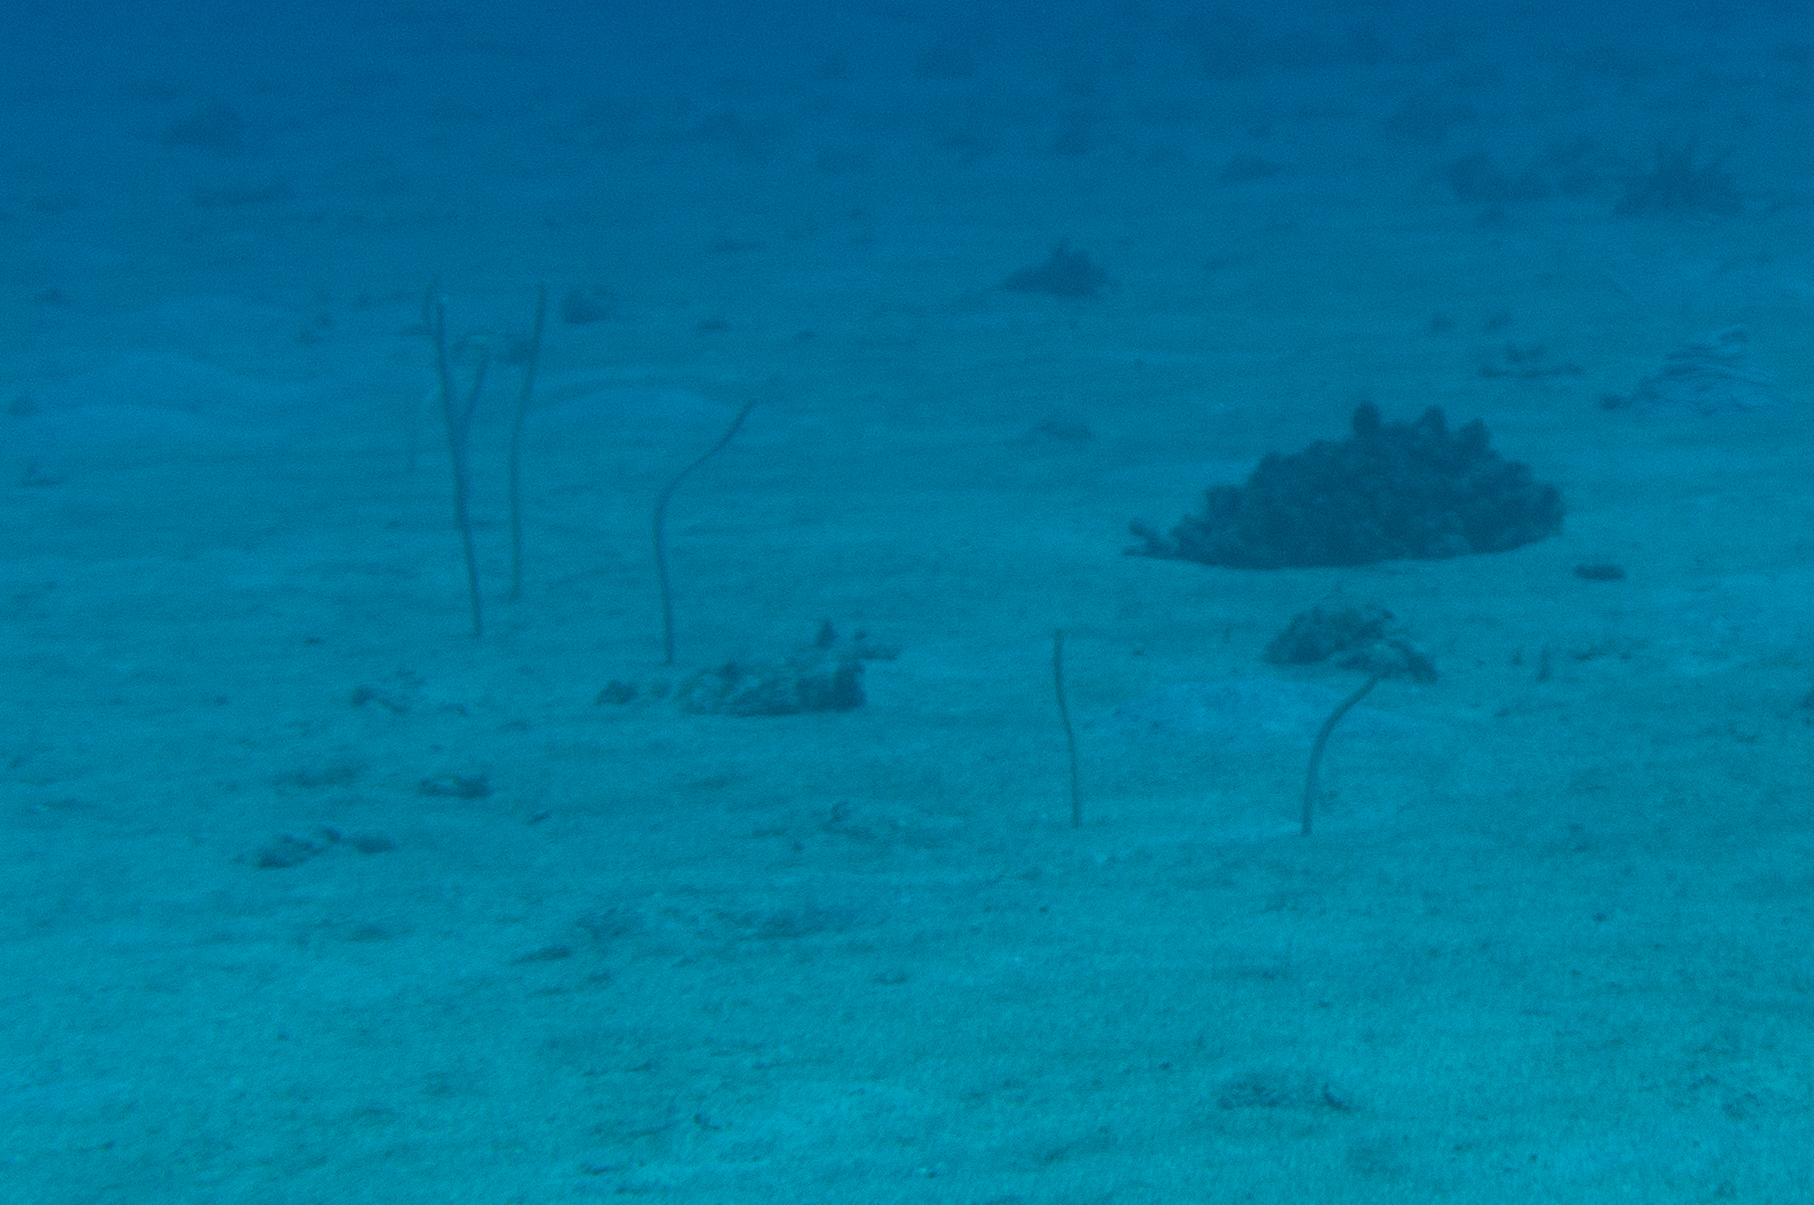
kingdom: Animalia
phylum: Chordata
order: Anguilliformes
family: Congridae
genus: Gorgasia
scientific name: Gorgasia hawaiiensis
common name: Hawaiian garden eel
